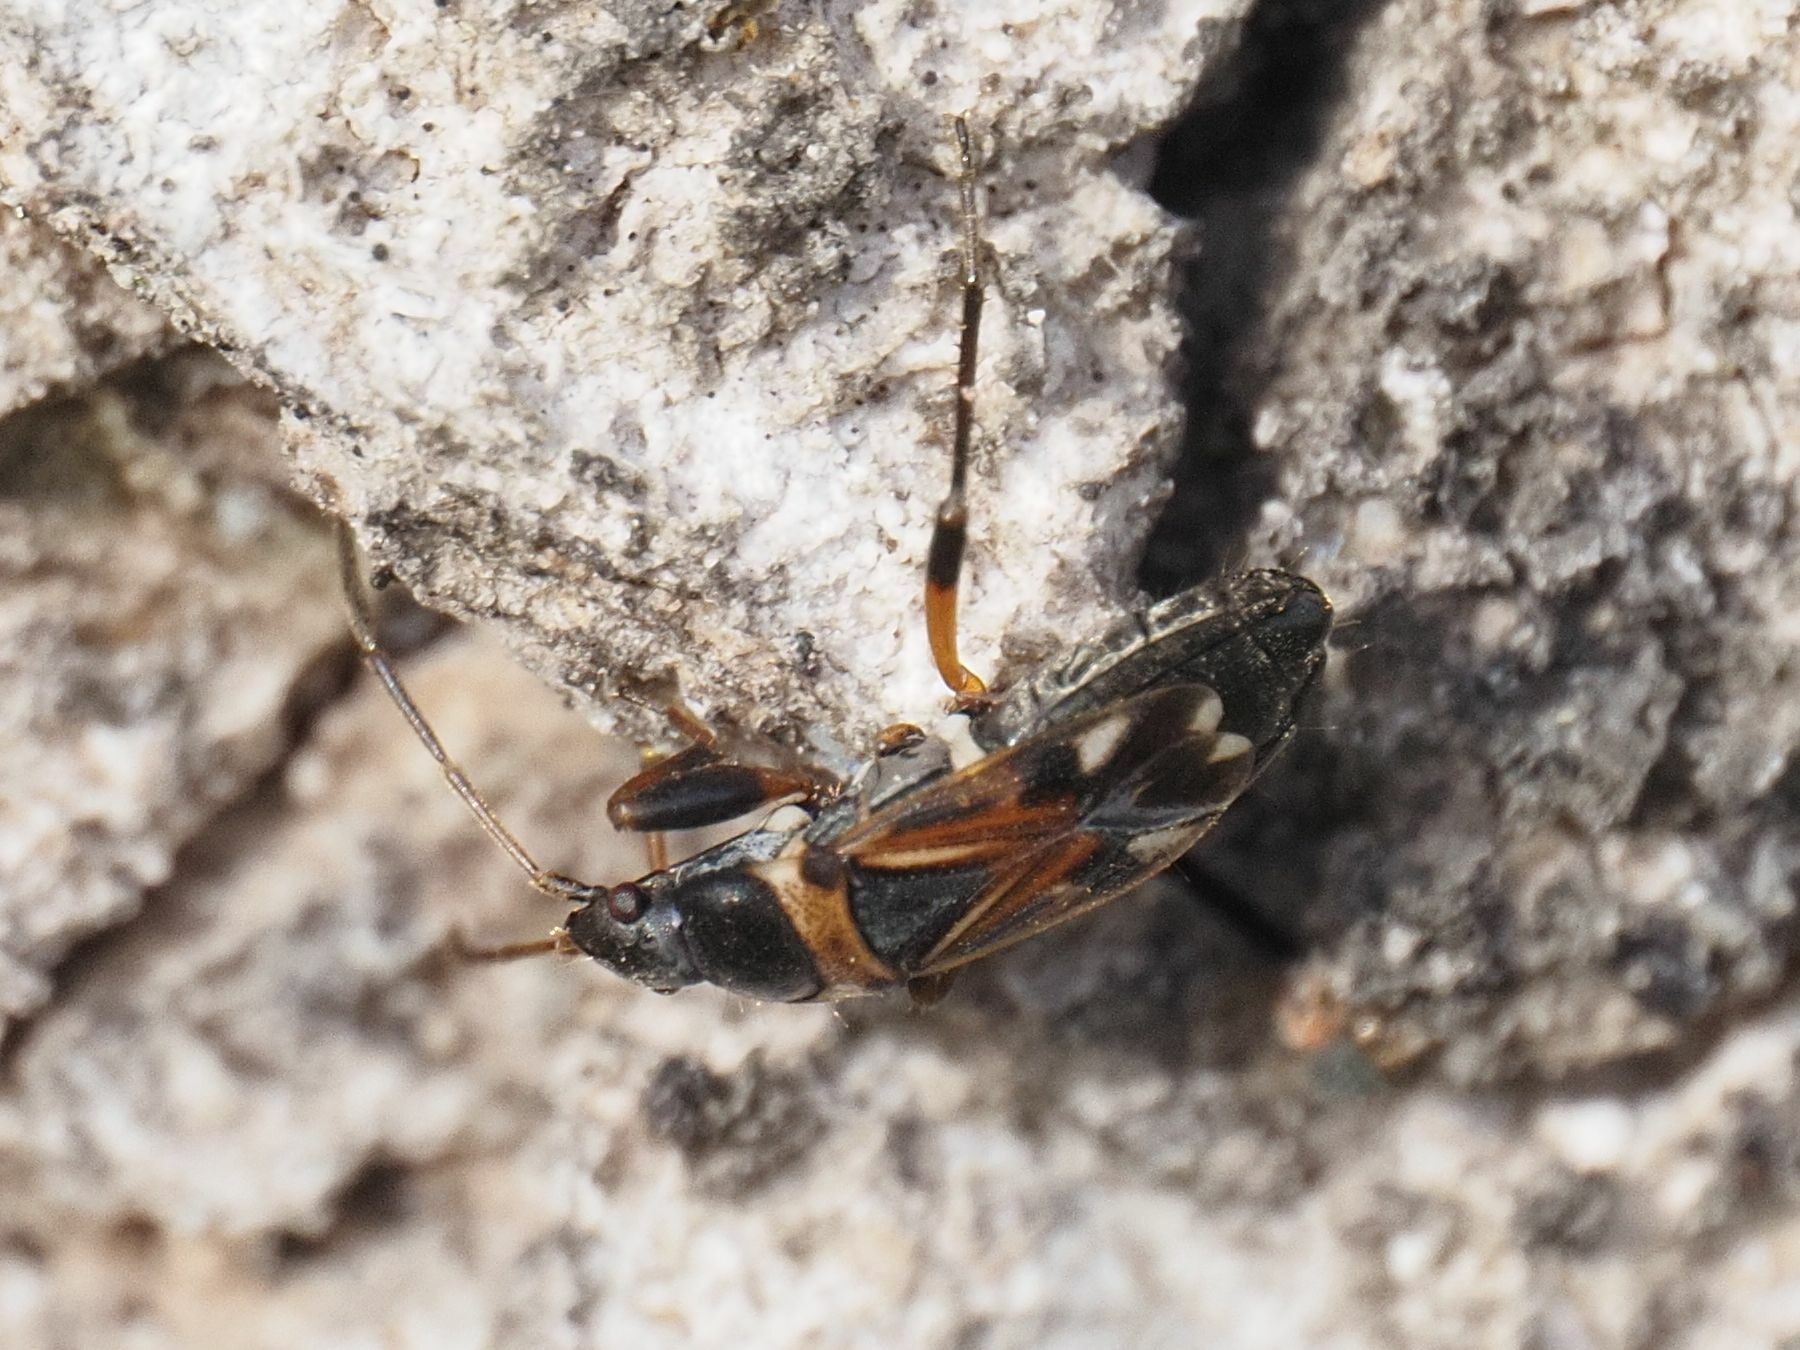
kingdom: Animalia
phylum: Arthropoda
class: Insecta
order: Hemiptera
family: Rhyparochromidae
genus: Raglius
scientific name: Raglius alboacuminatus
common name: Dirt-colored seed bug
